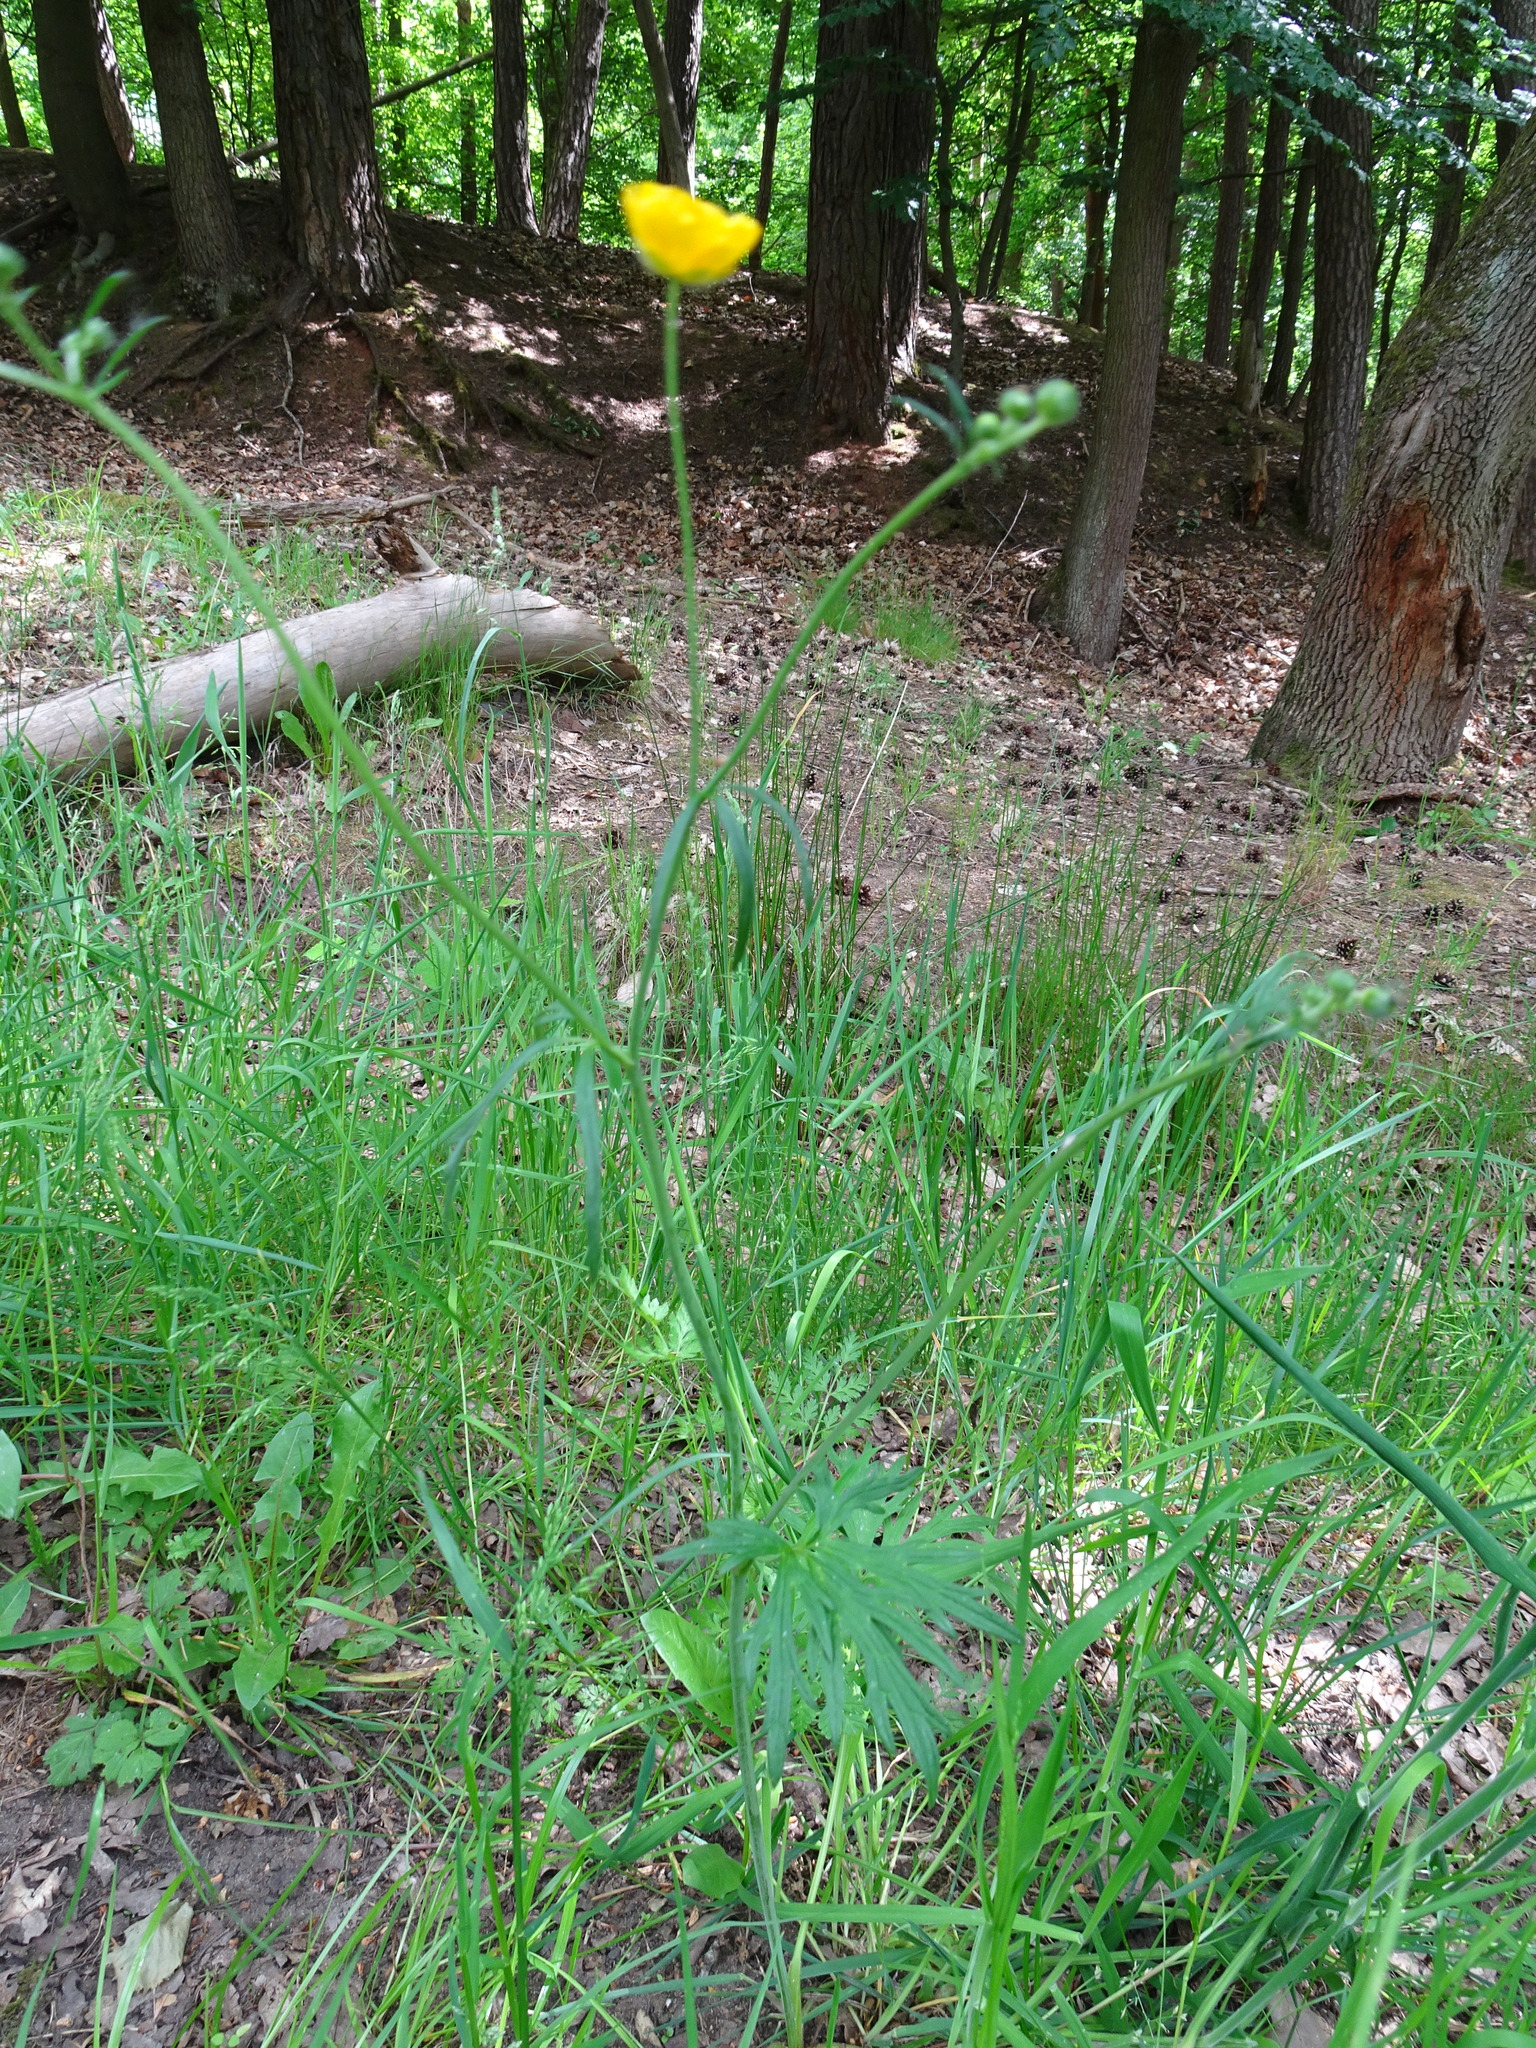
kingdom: Plantae
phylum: Tracheophyta
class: Magnoliopsida
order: Ranunculales
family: Ranunculaceae
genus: Ranunculus
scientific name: Ranunculus acris
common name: Meadow buttercup
